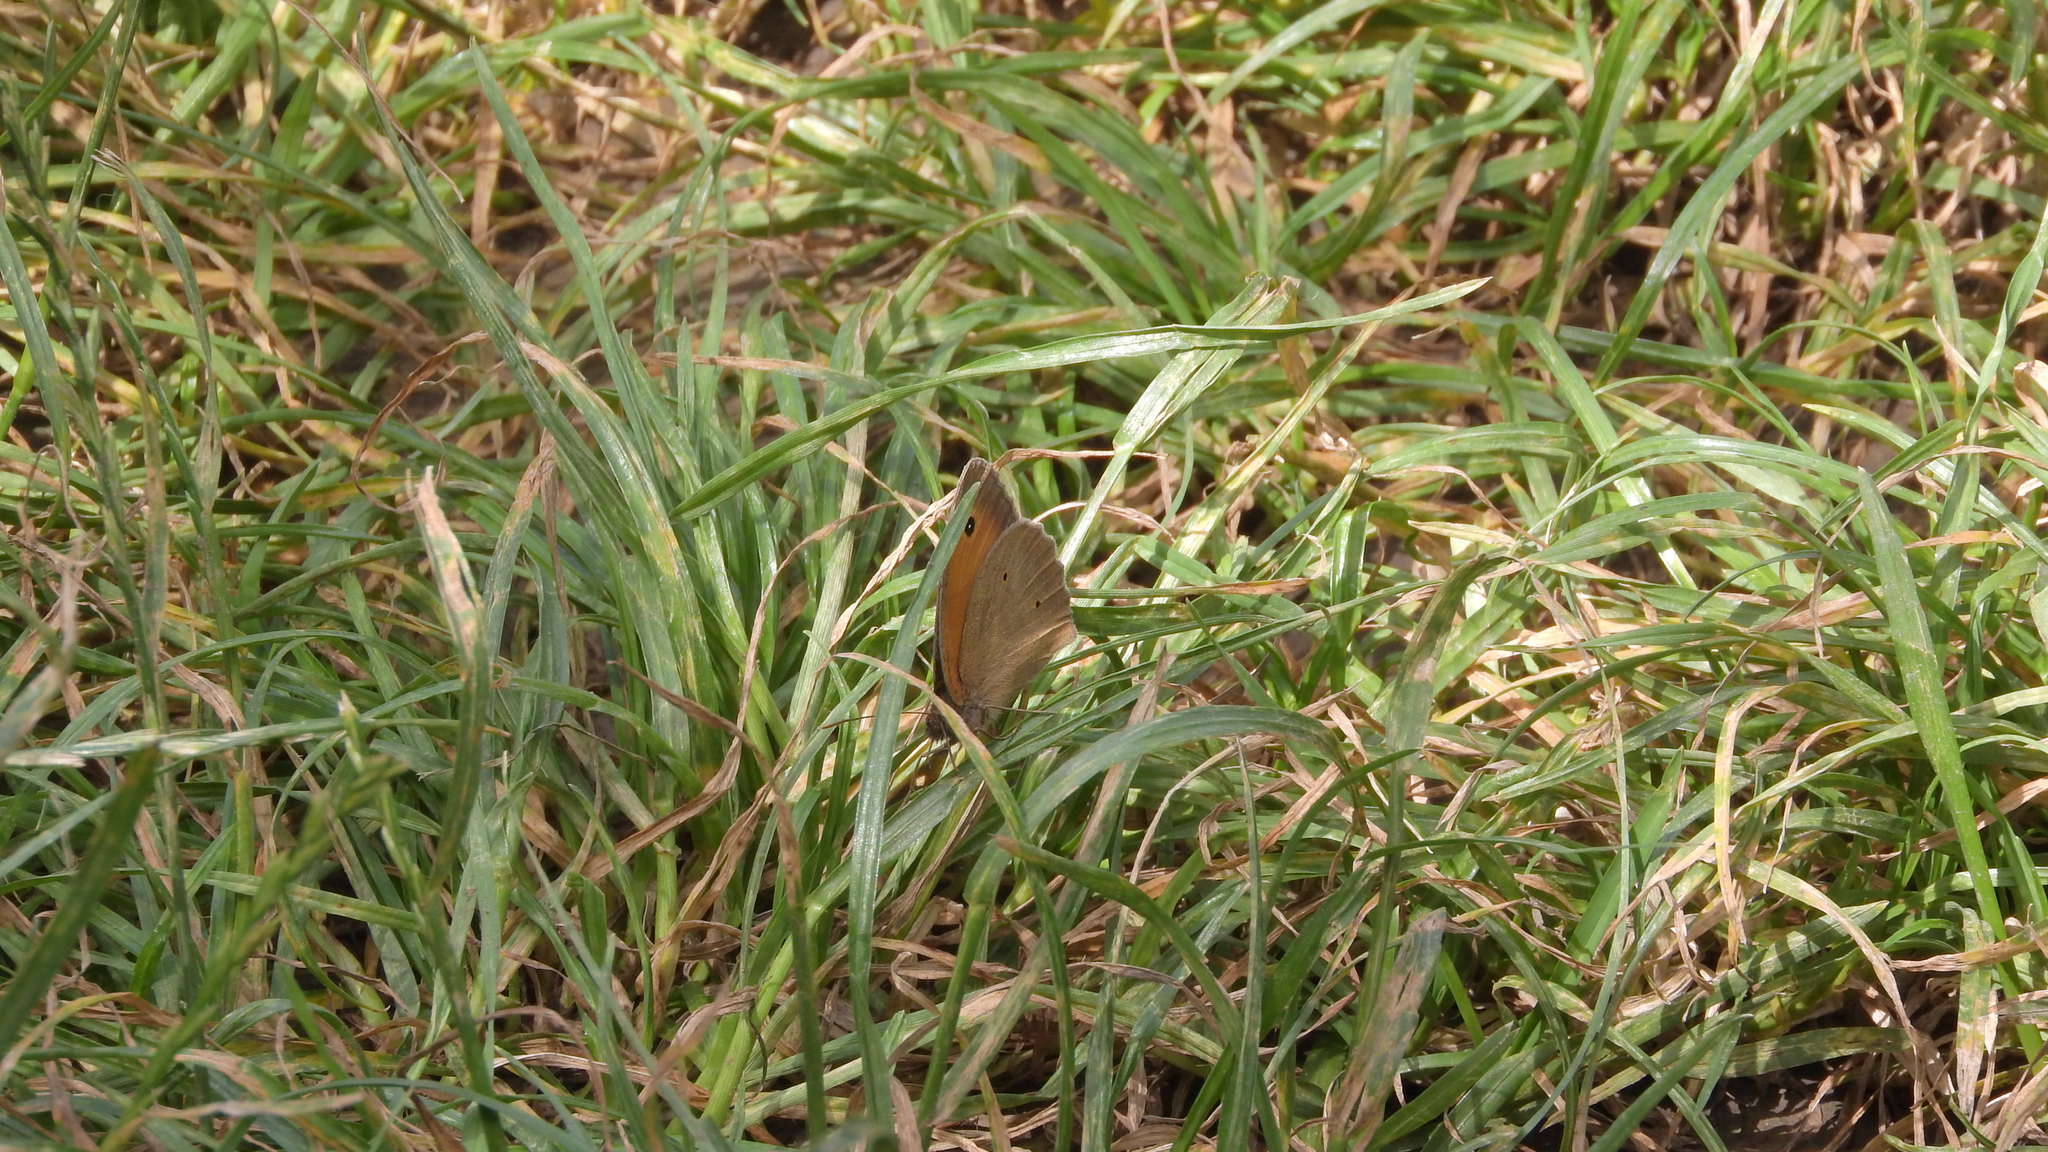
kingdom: Animalia
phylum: Arthropoda
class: Insecta
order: Lepidoptera
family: Nymphalidae
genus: Maniola
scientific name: Maniola jurtina
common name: Meadow brown
